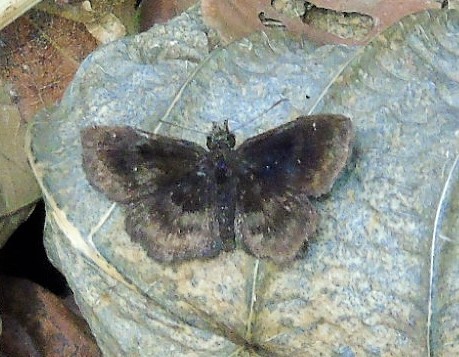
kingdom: Animalia
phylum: Arthropoda
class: Insecta
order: Lepidoptera
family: Hesperiidae
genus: Staphylus
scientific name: Staphylus mazans
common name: Mazans scallopwing
